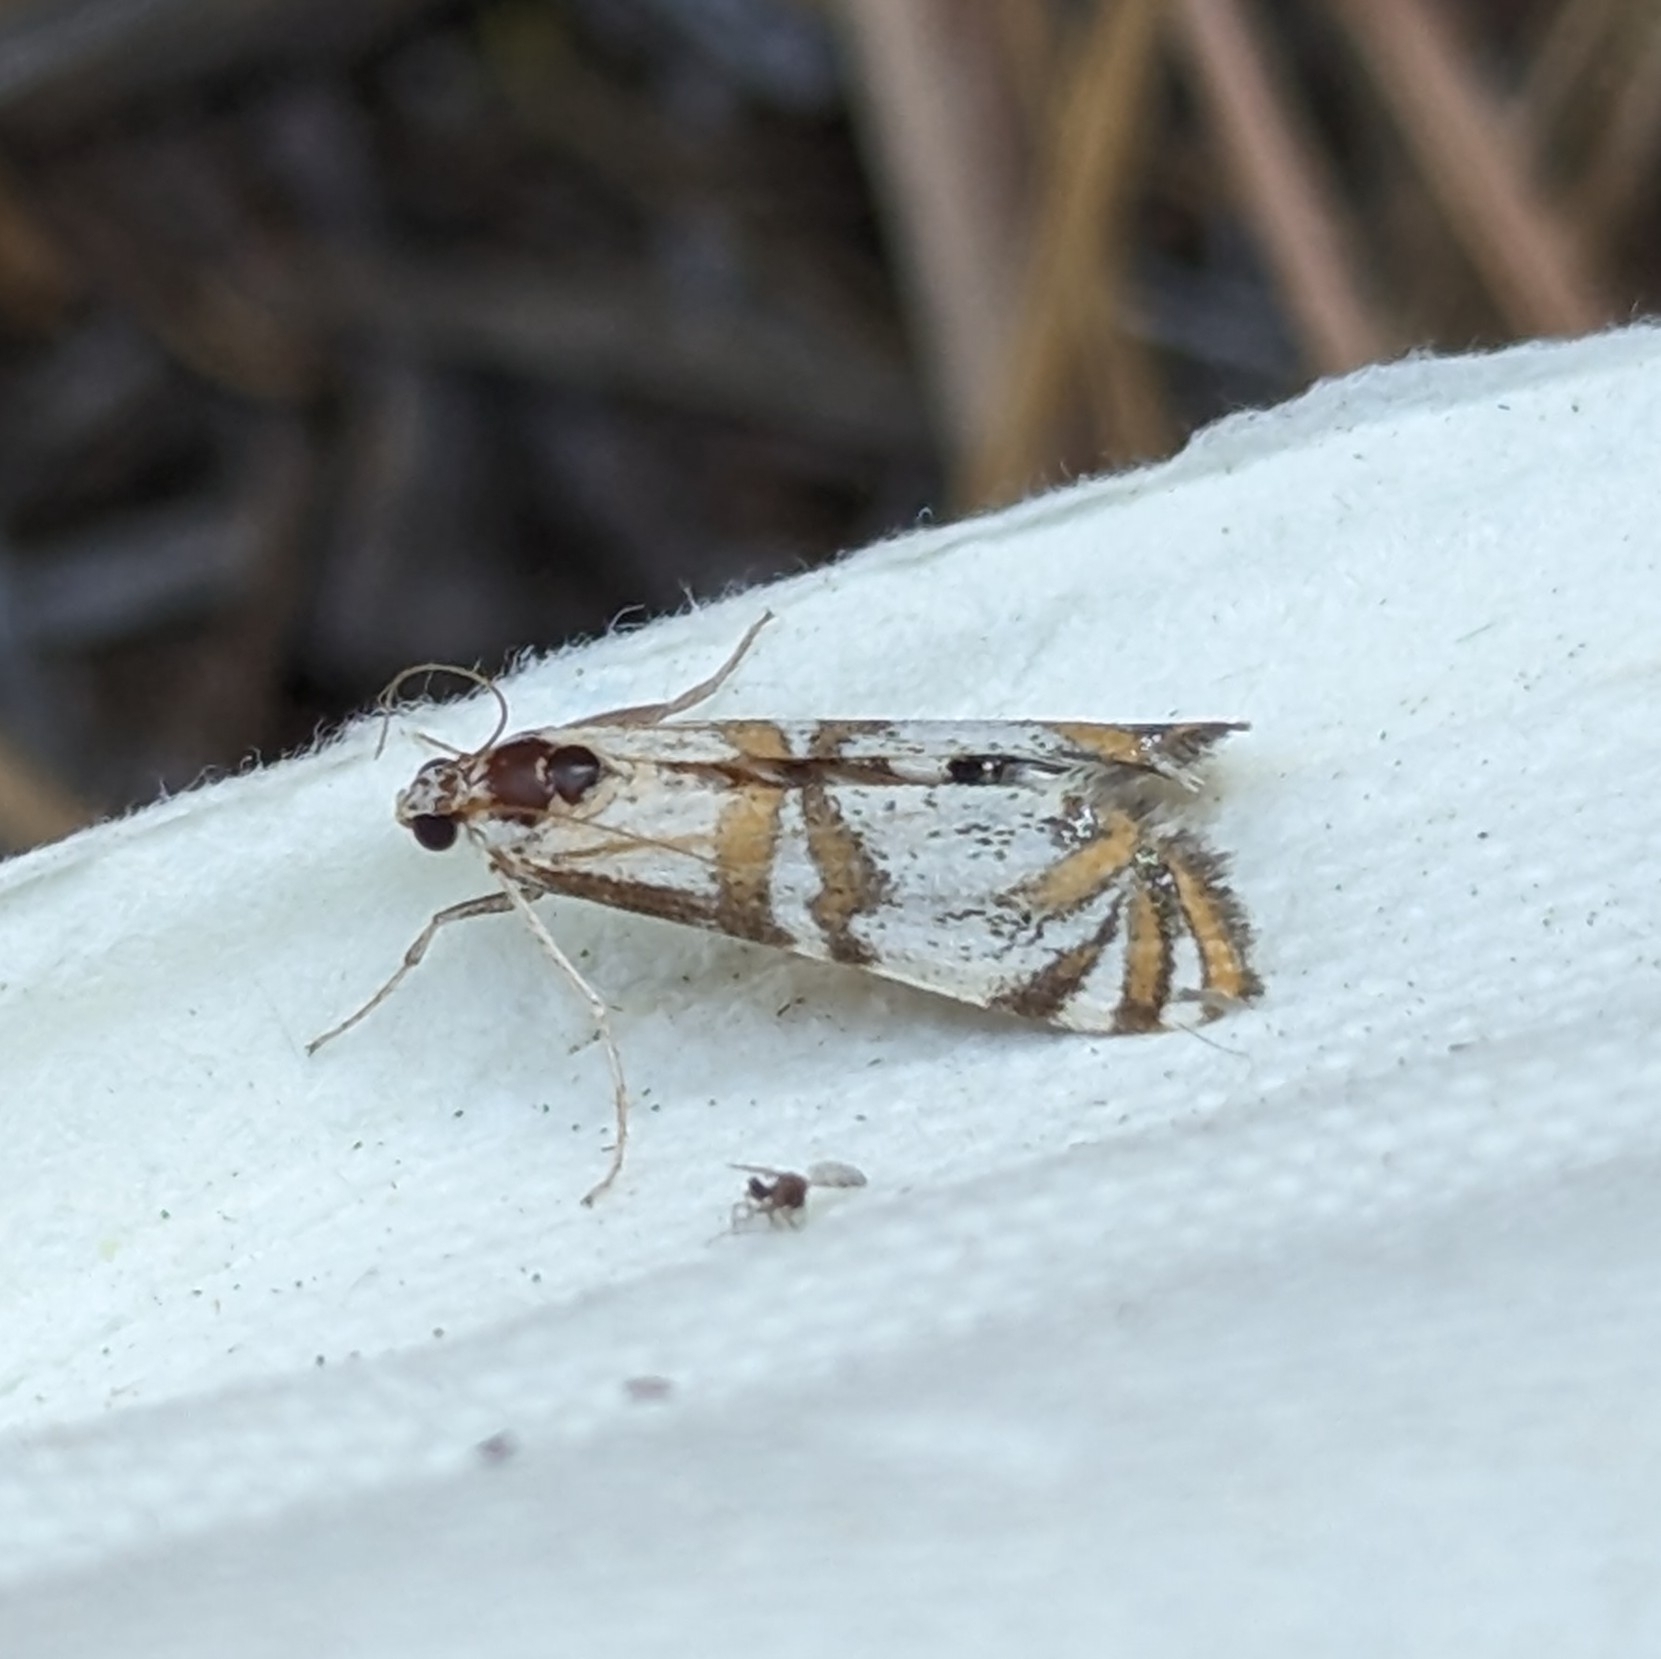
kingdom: Animalia
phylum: Arthropoda
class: Insecta
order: Lepidoptera
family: Crambidae
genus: Petrophila
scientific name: Petrophila kearfottalis
